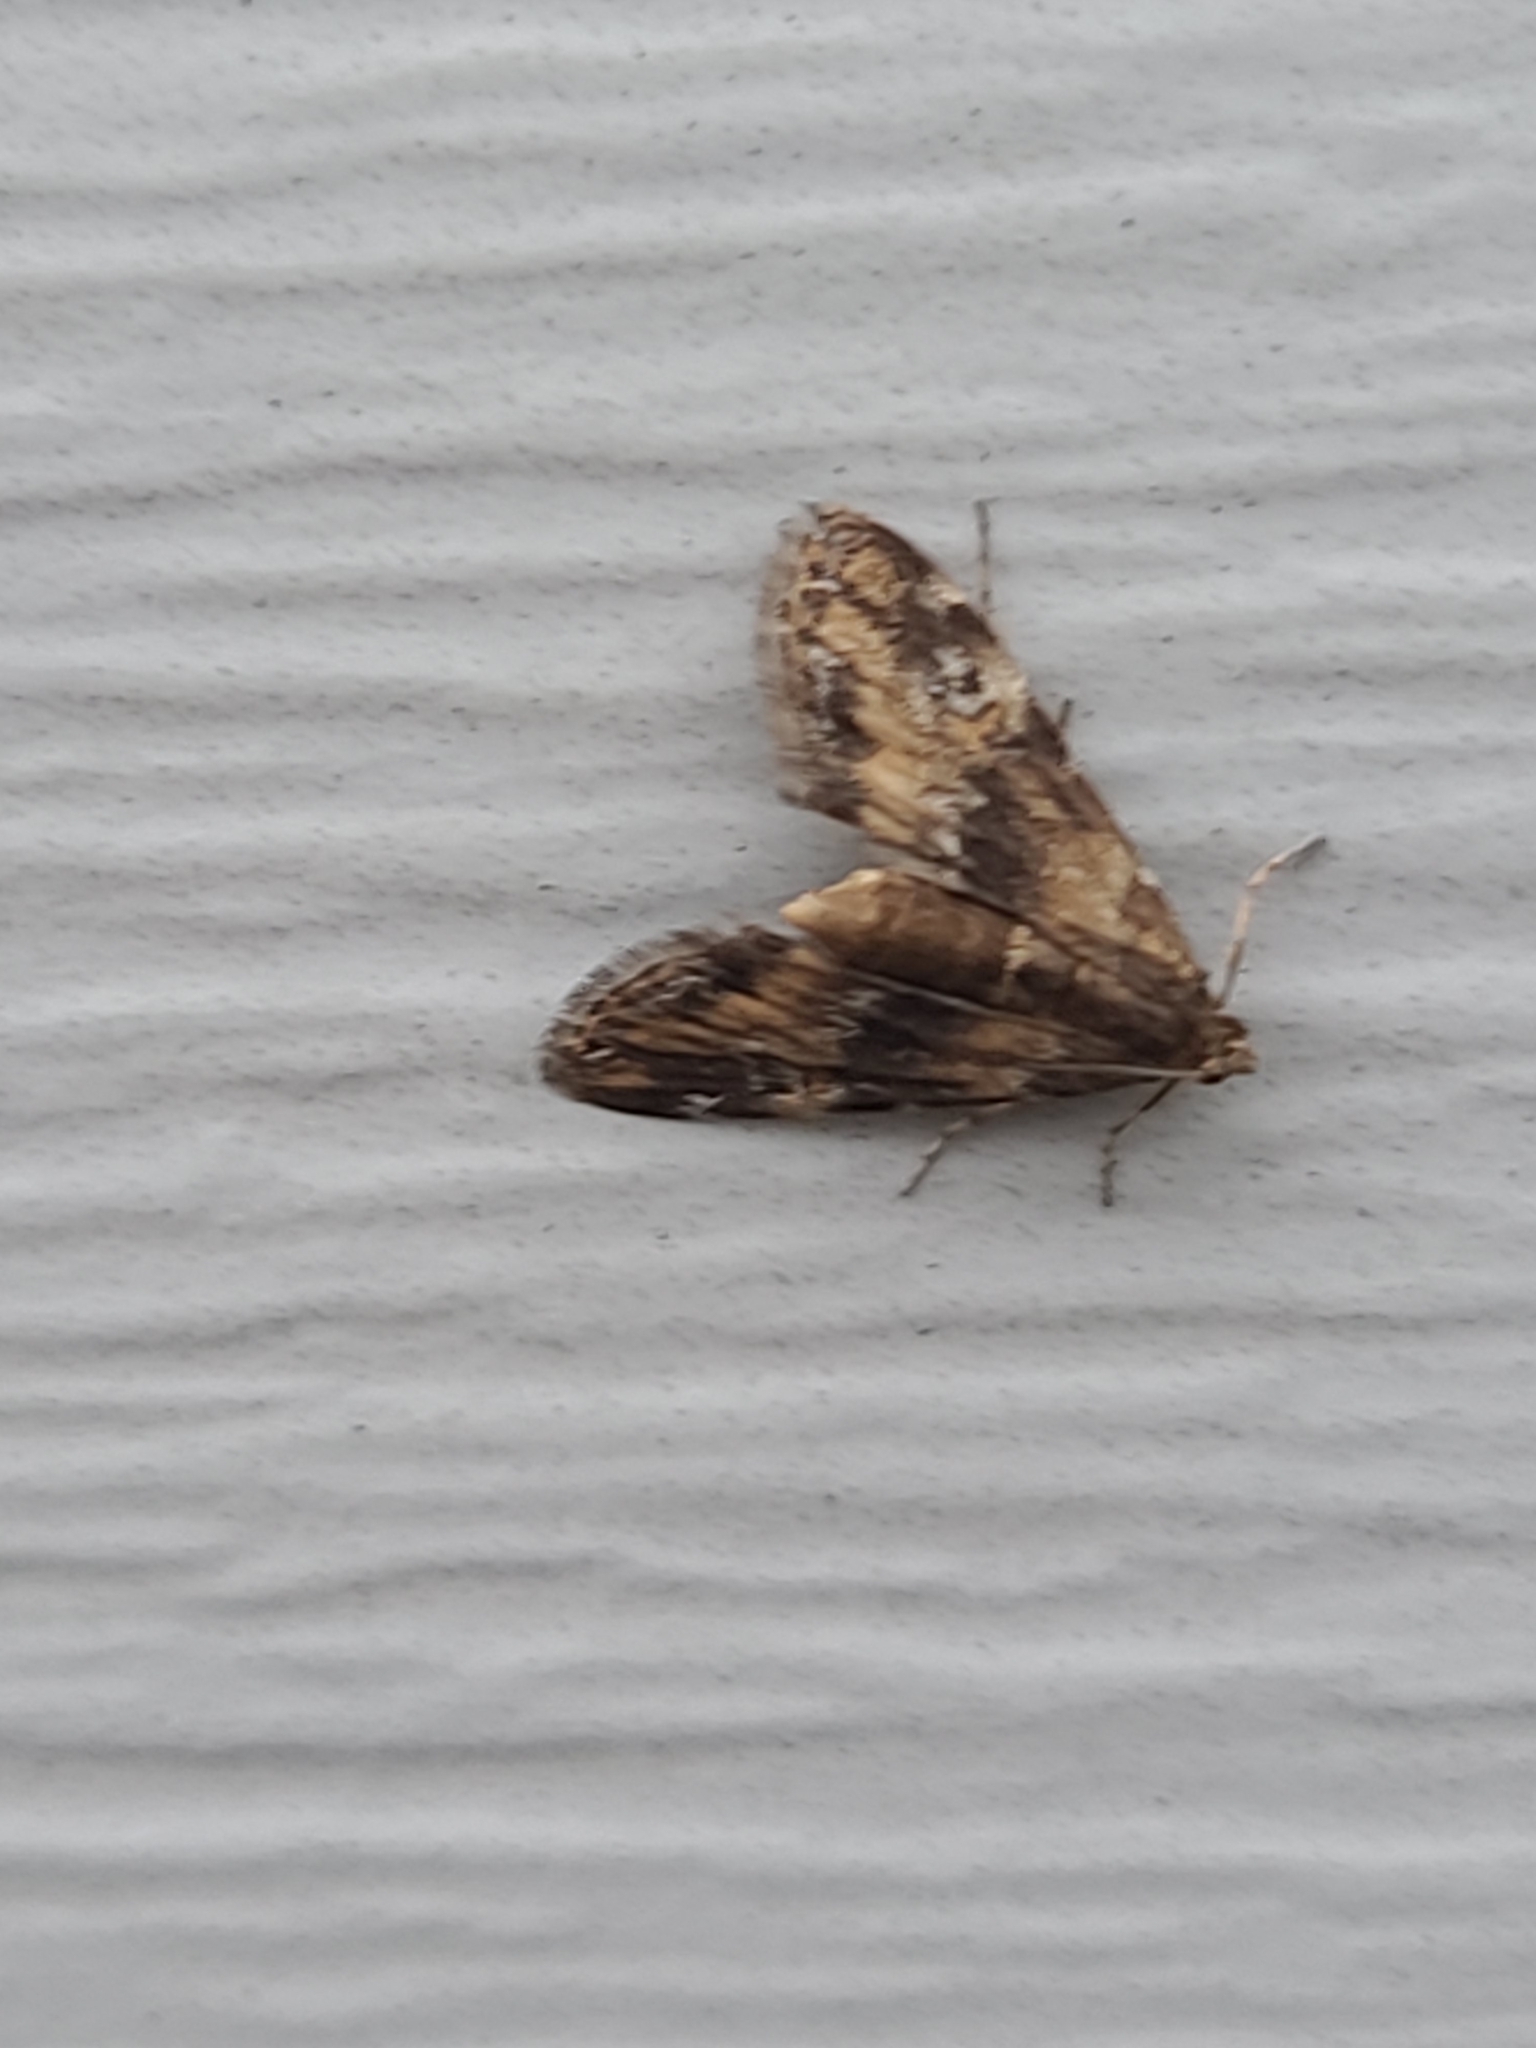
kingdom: Animalia
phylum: Arthropoda
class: Insecta
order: Lepidoptera
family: Crambidae
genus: Elophila
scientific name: Elophila obliteralis
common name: Waterlily leafcutter moth
